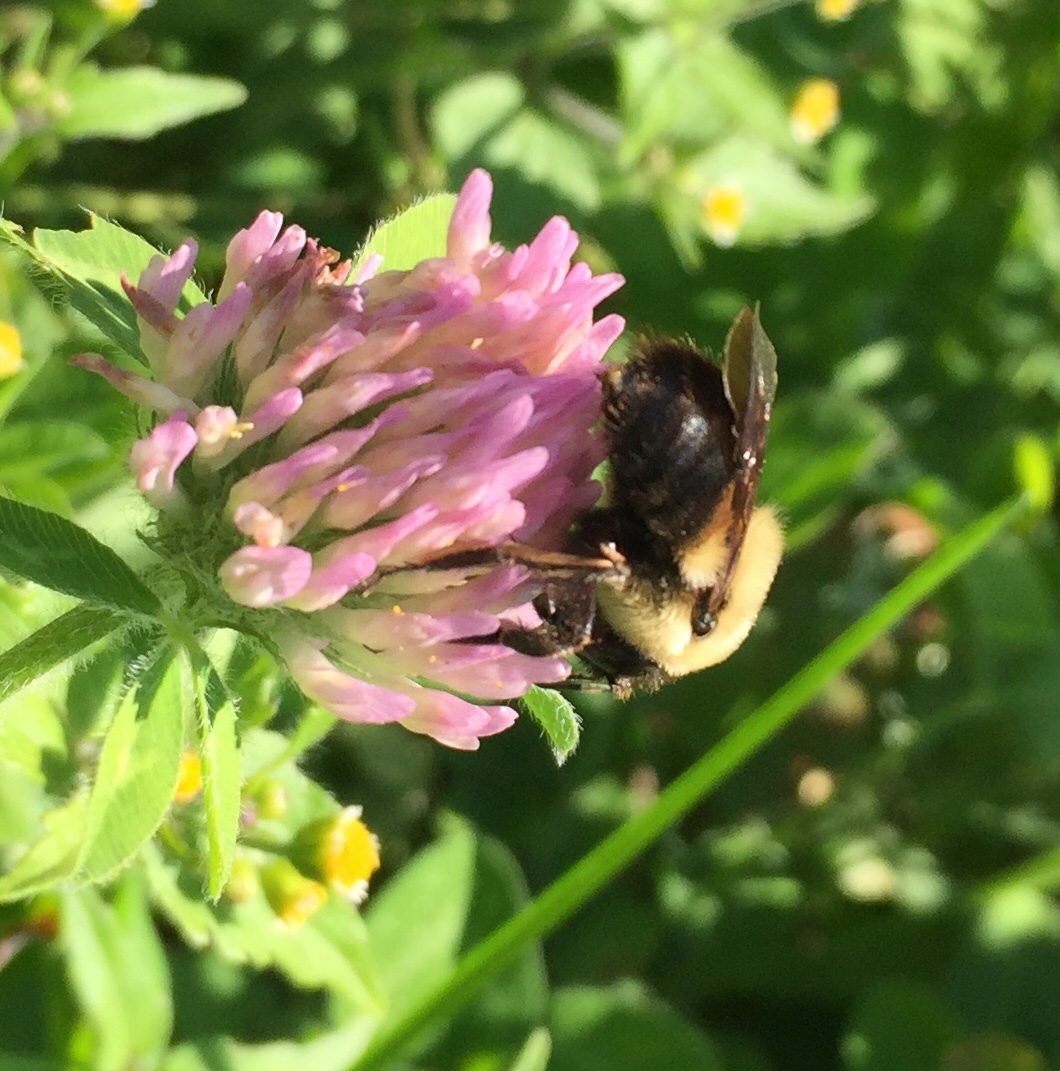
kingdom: Animalia
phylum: Arthropoda
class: Insecta
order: Hymenoptera
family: Apidae
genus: Bombus
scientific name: Bombus griseocollis
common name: Brown-belted bumble bee
